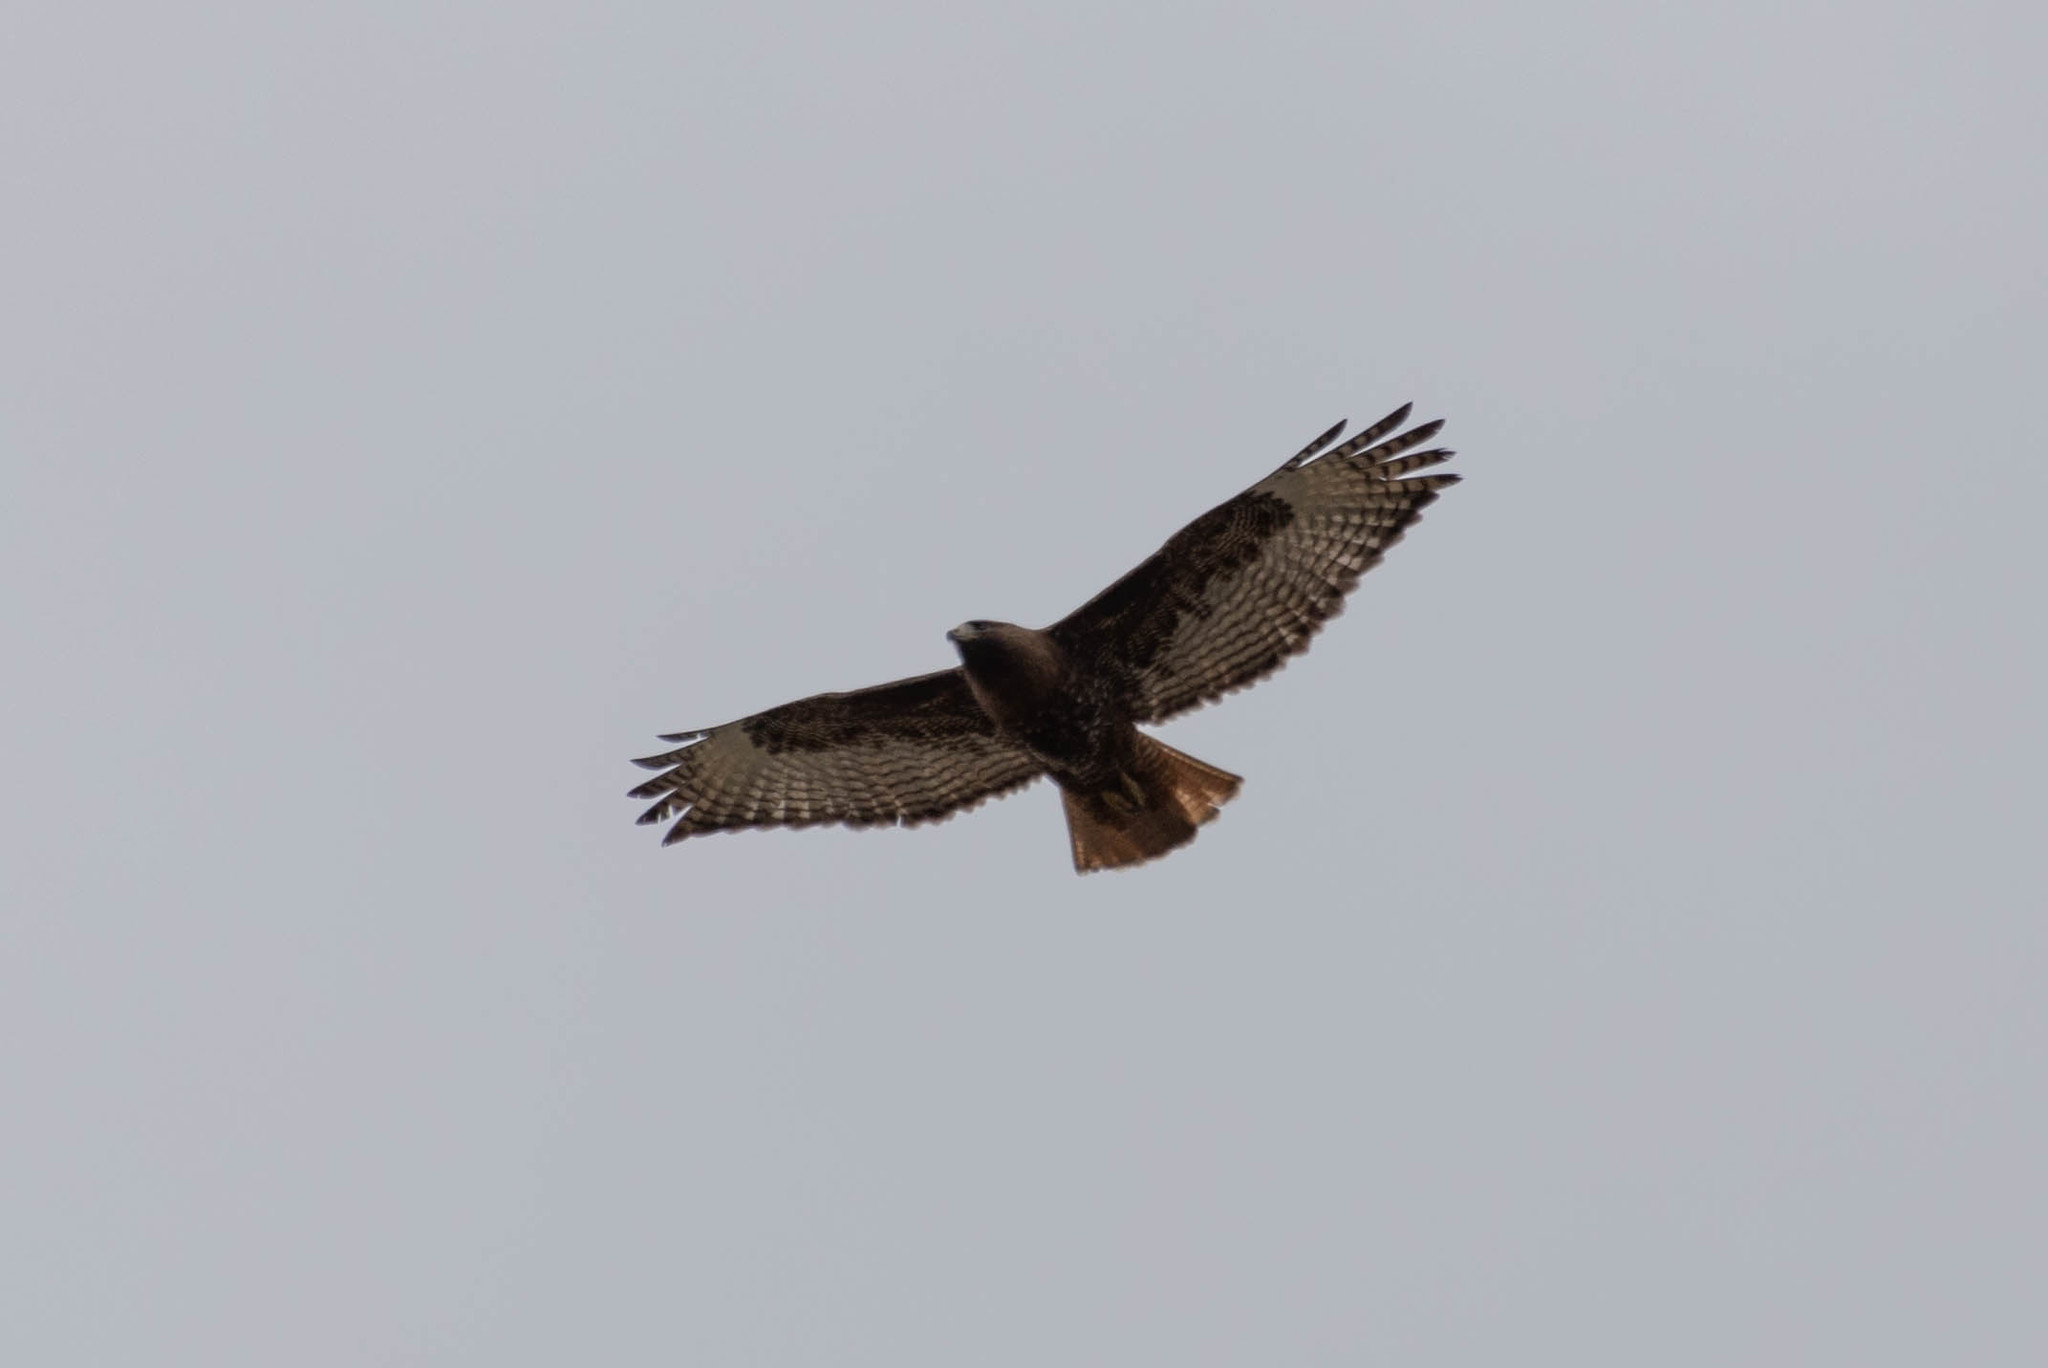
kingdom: Animalia
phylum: Chordata
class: Aves
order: Accipitriformes
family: Accipitridae
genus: Buteo
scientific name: Buteo jamaicensis
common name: Red-tailed hawk
